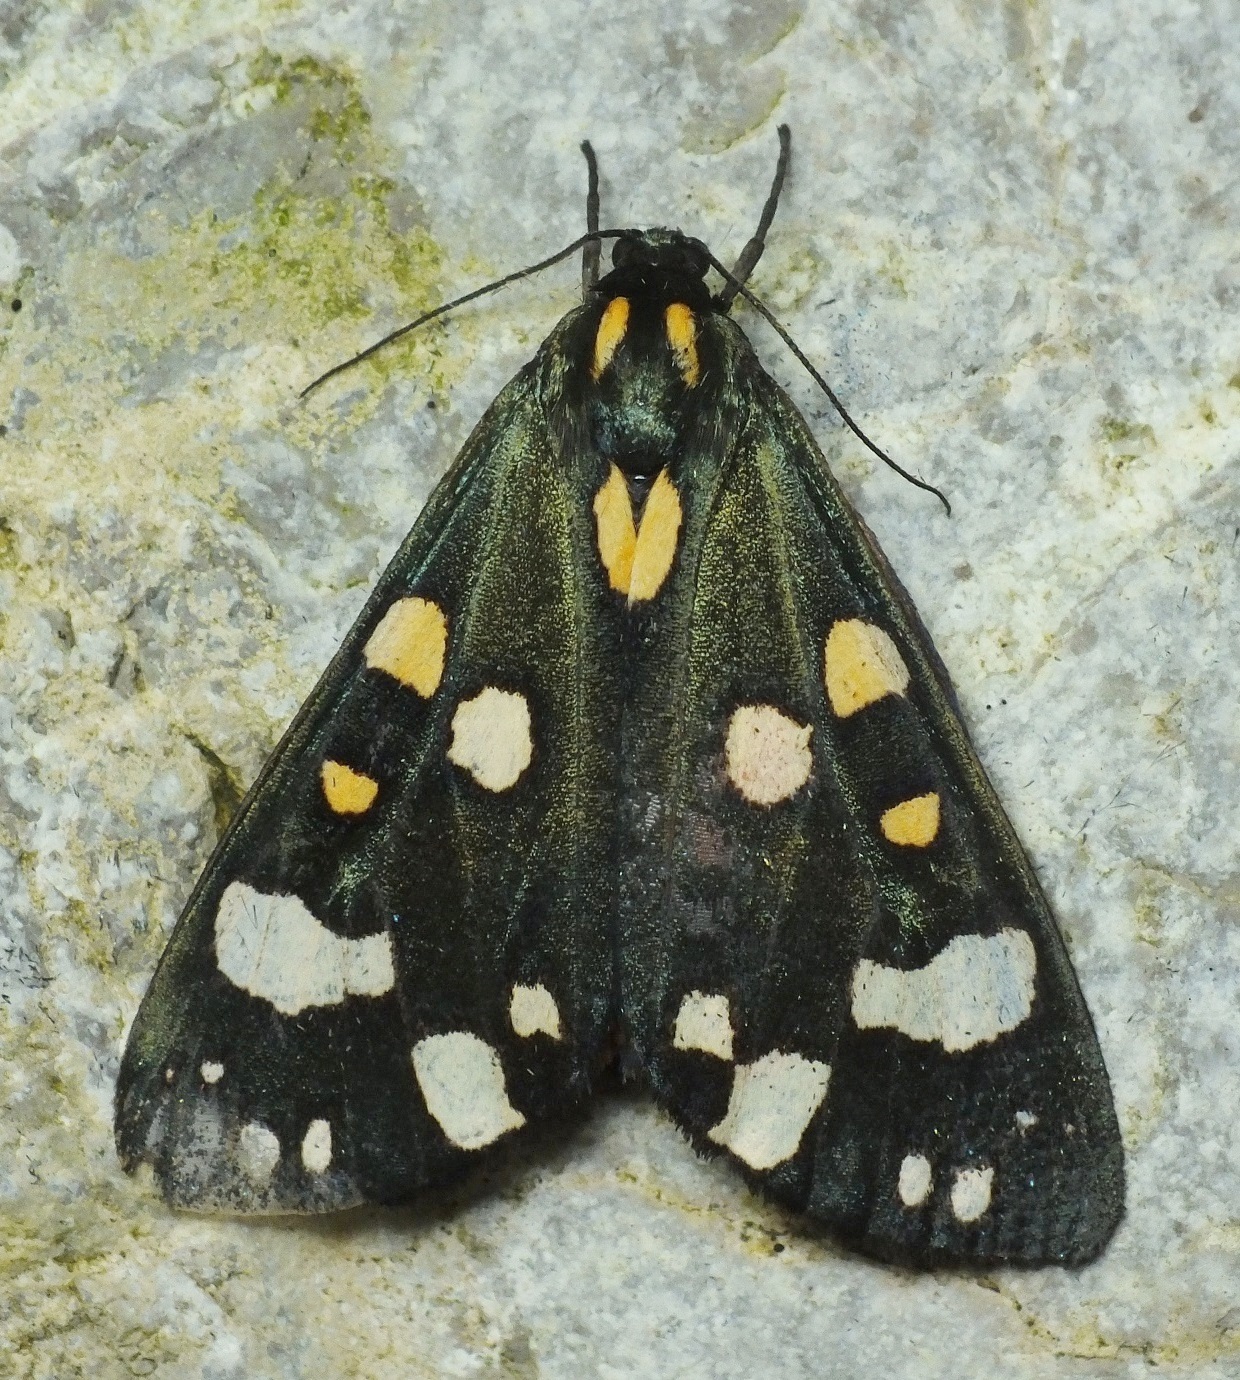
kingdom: Animalia
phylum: Arthropoda
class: Insecta
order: Lepidoptera
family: Erebidae
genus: Callimorpha
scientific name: Callimorpha dominula
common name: Scarlet tiger
